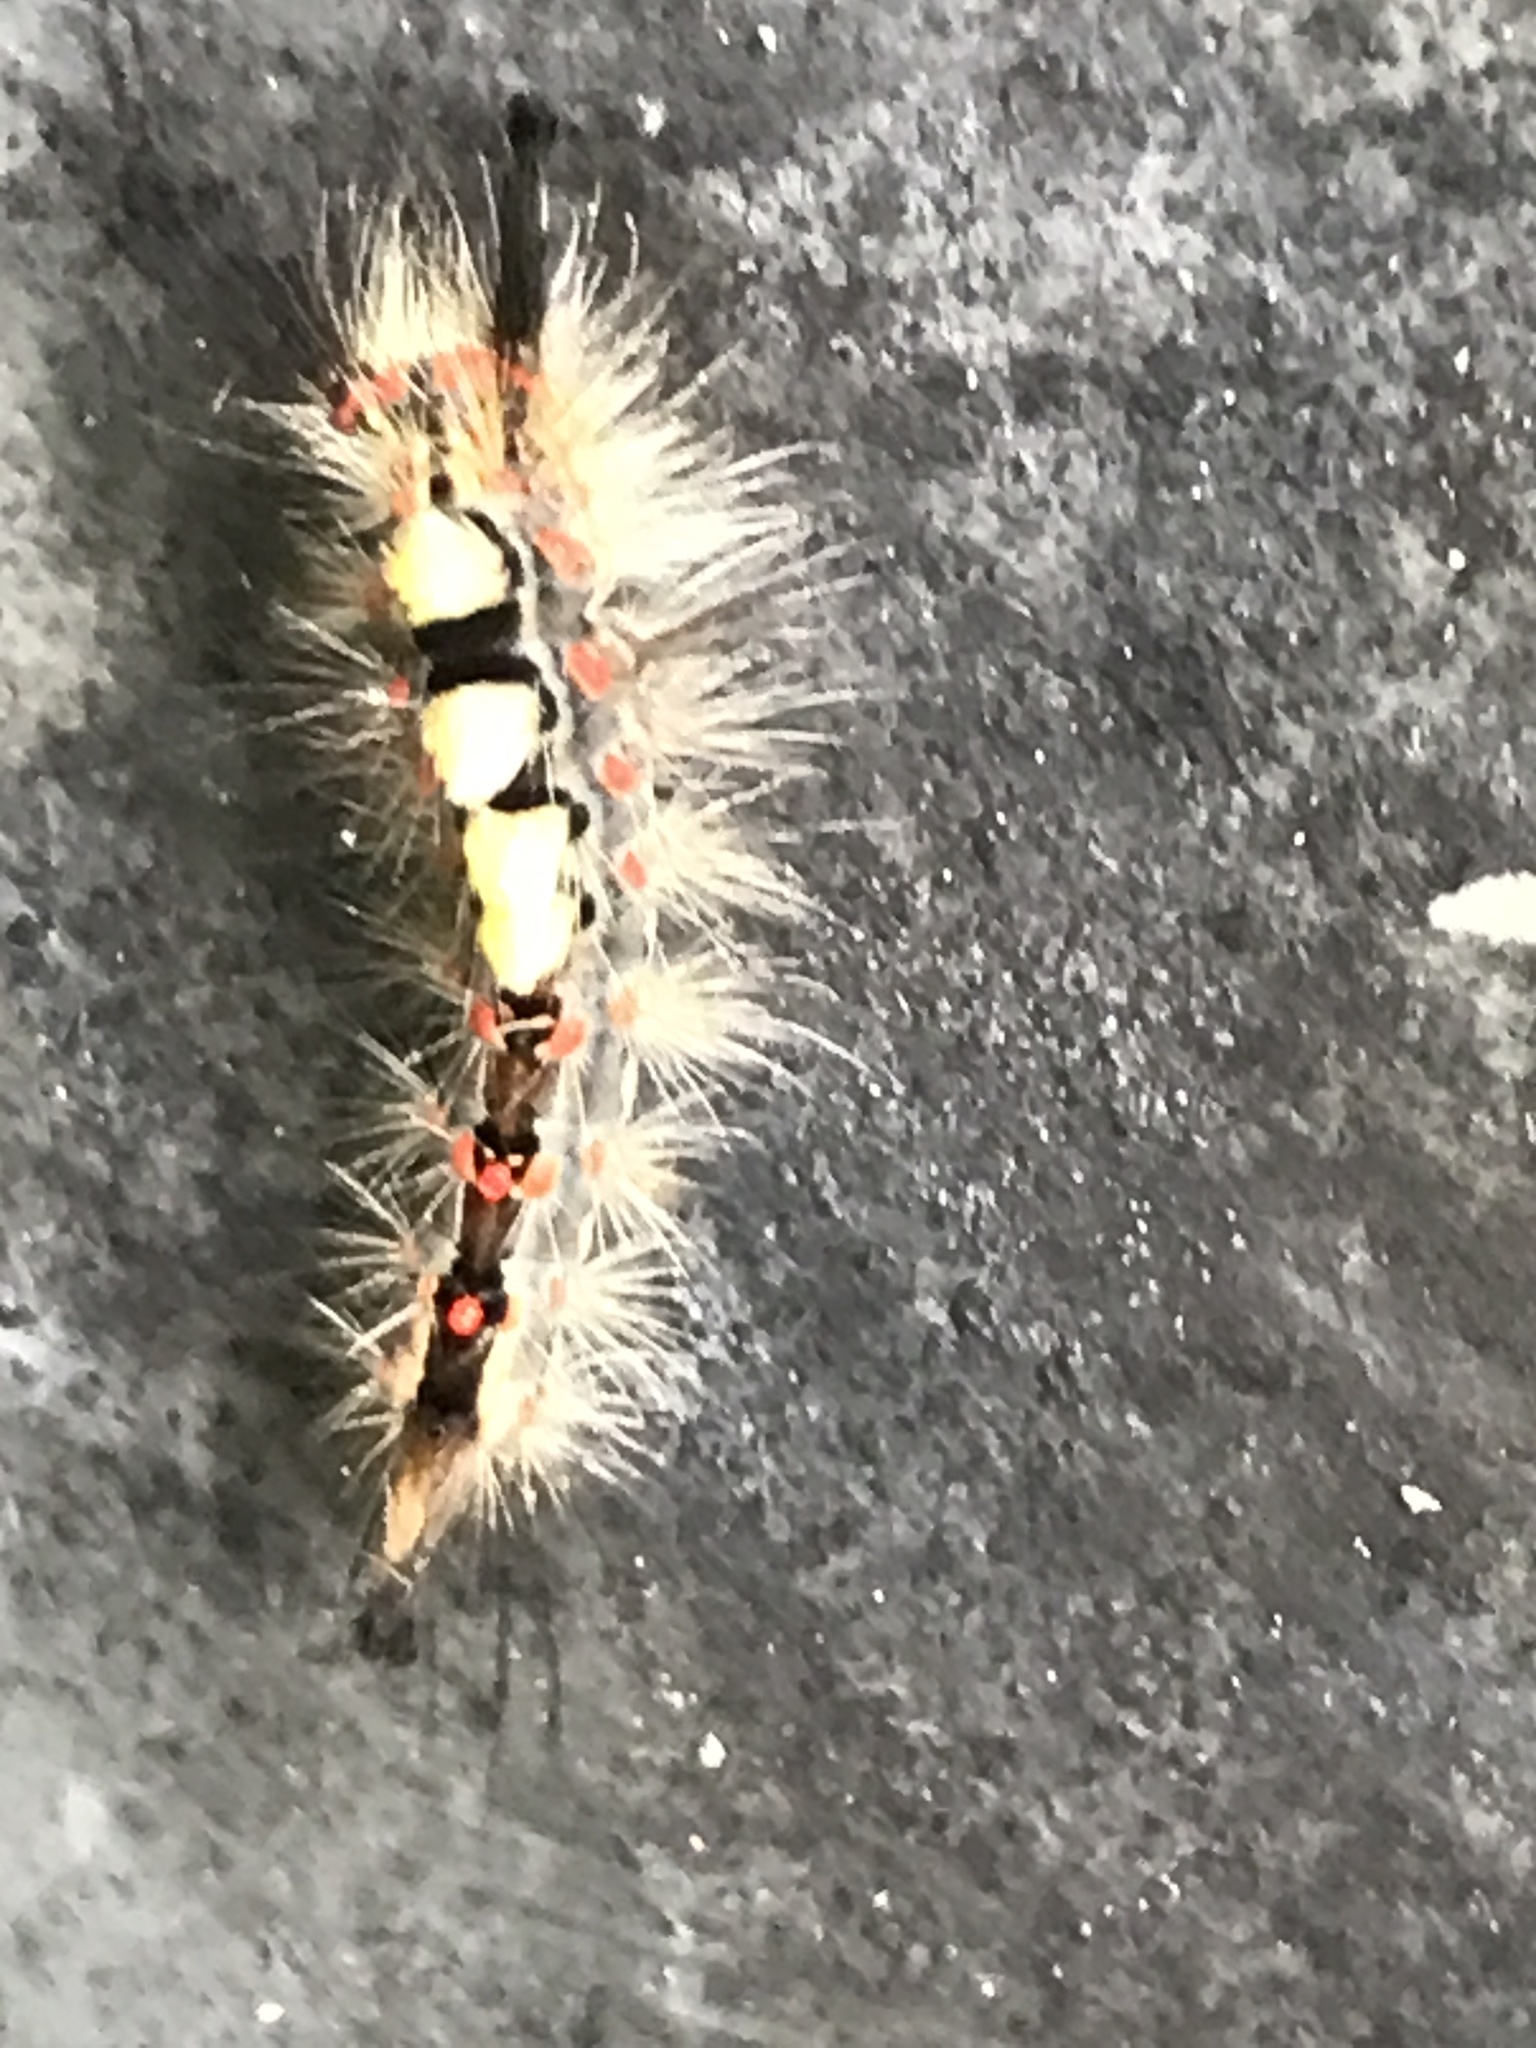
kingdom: Animalia
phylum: Arthropoda
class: Insecta
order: Lepidoptera
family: Erebidae
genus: Orgyia
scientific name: Orgyia antiqua
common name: Vapourer
